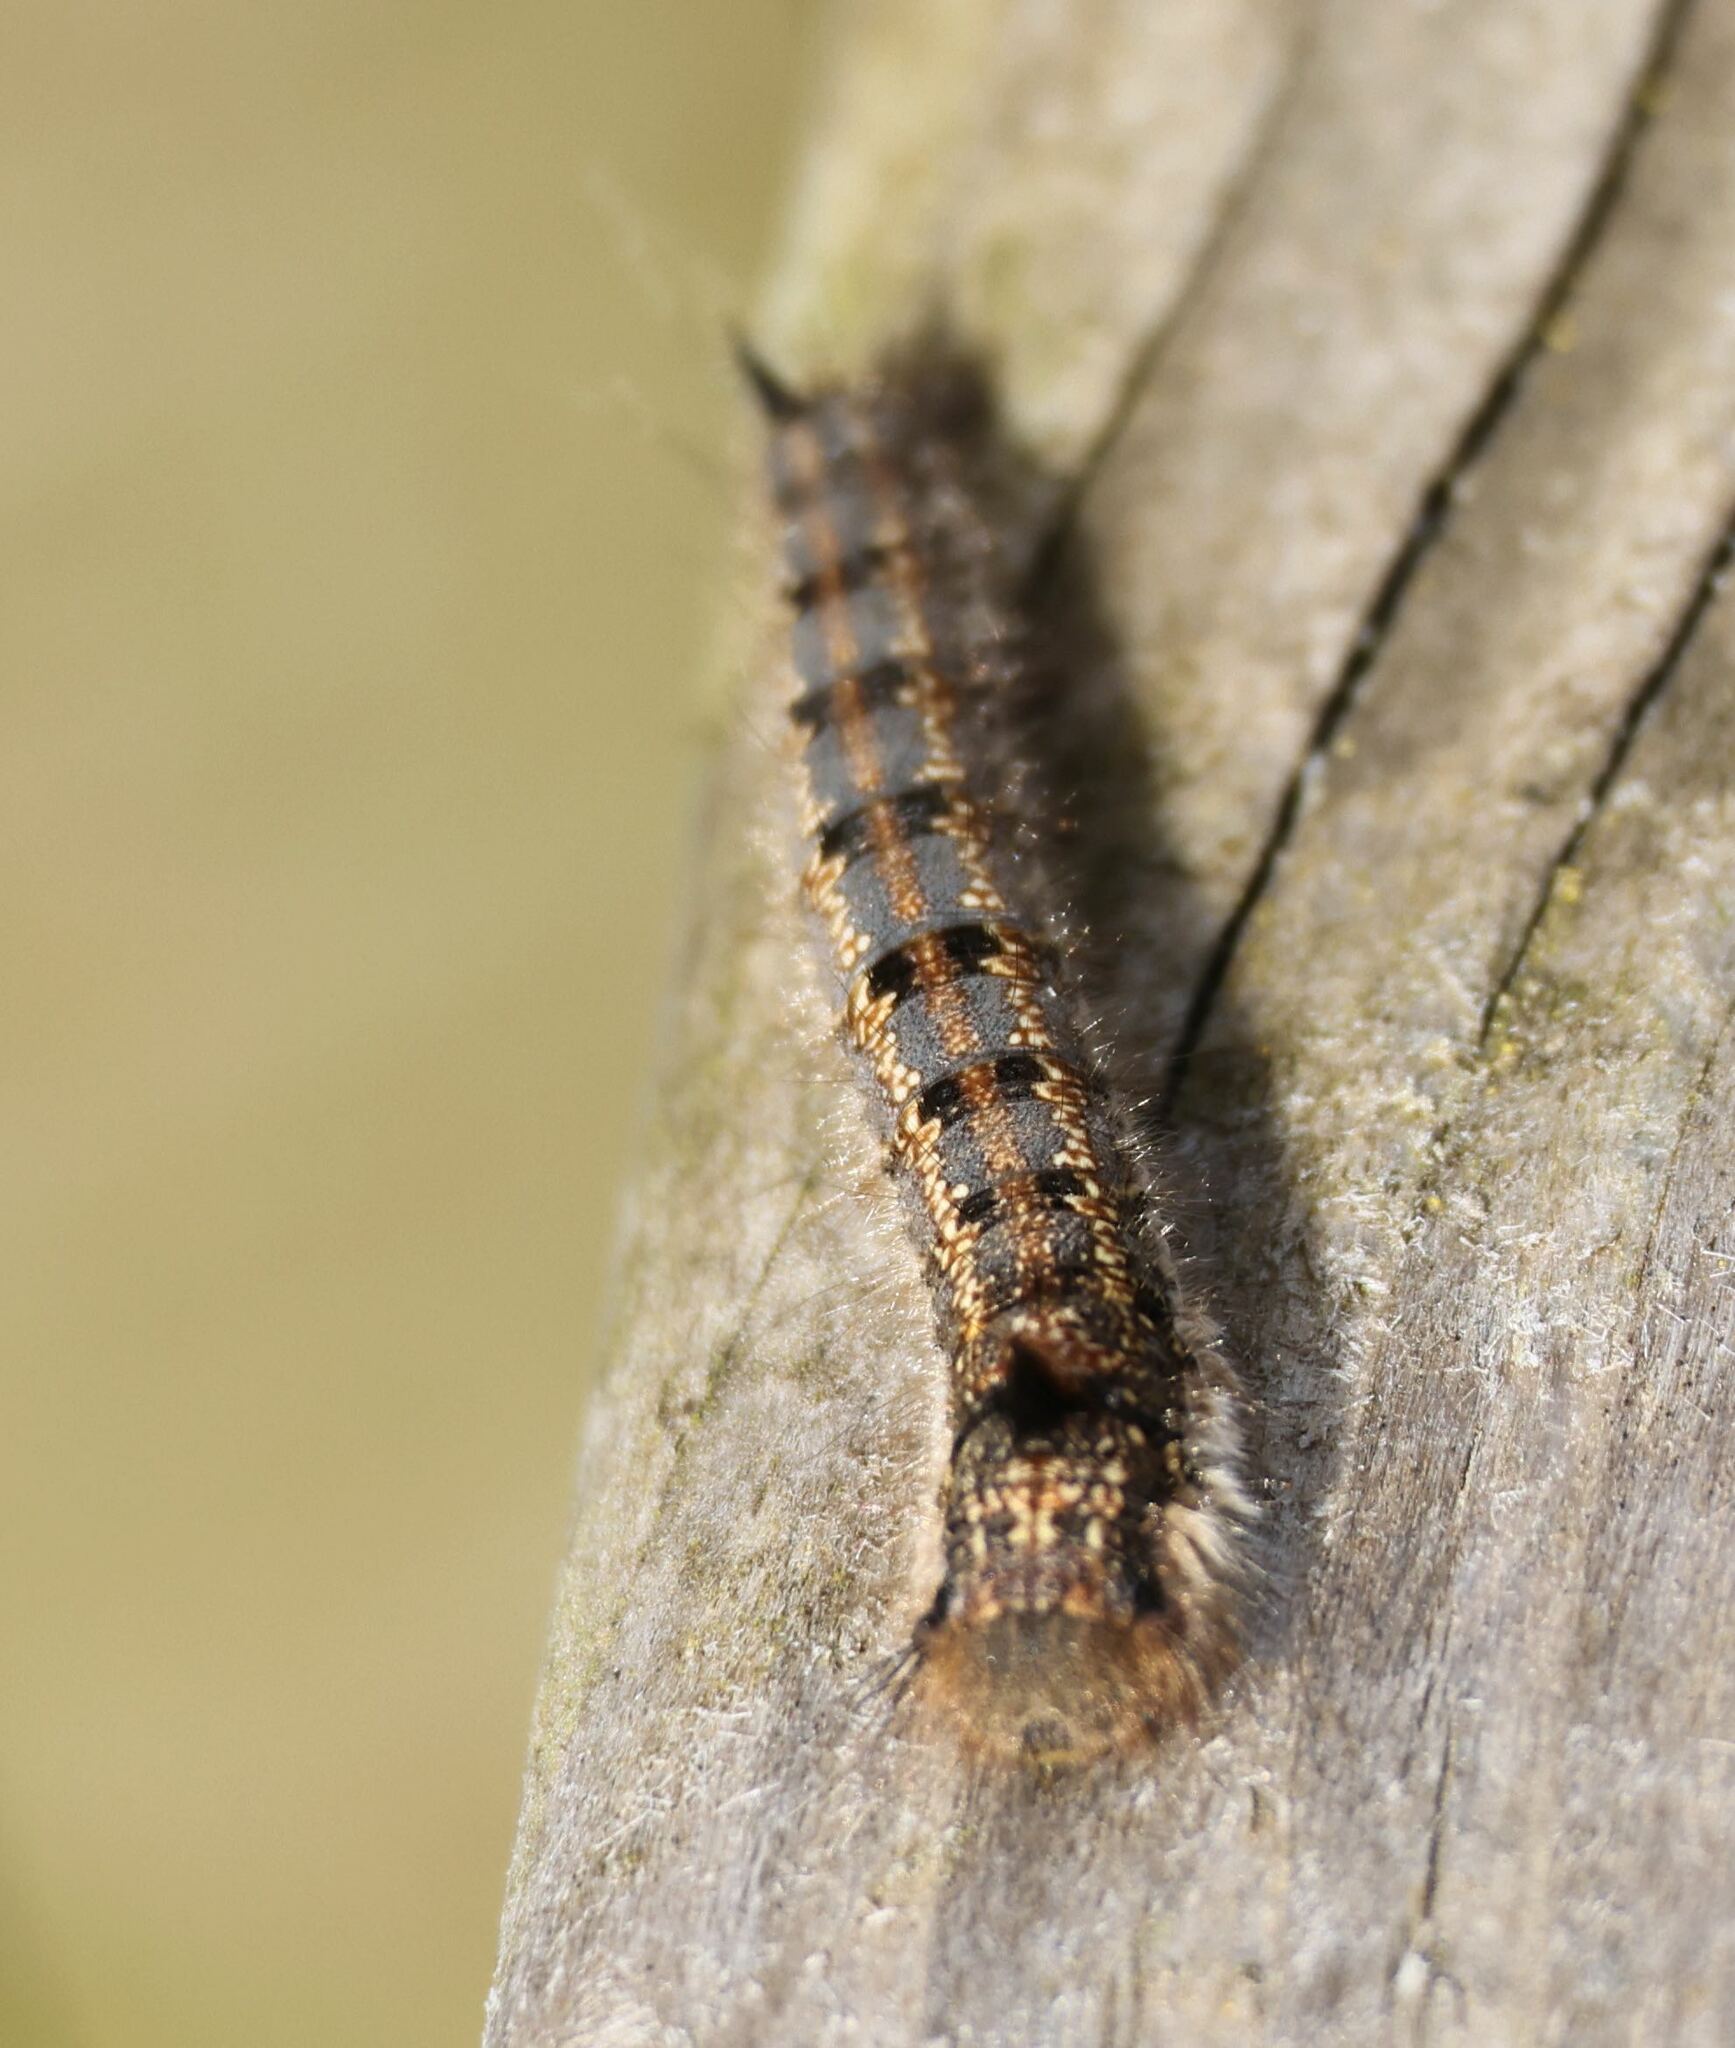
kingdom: Animalia
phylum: Arthropoda
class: Insecta
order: Lepidoptera
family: Lasiocampidae
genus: Euthrix
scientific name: Euthrix potatoria
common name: Drinker
